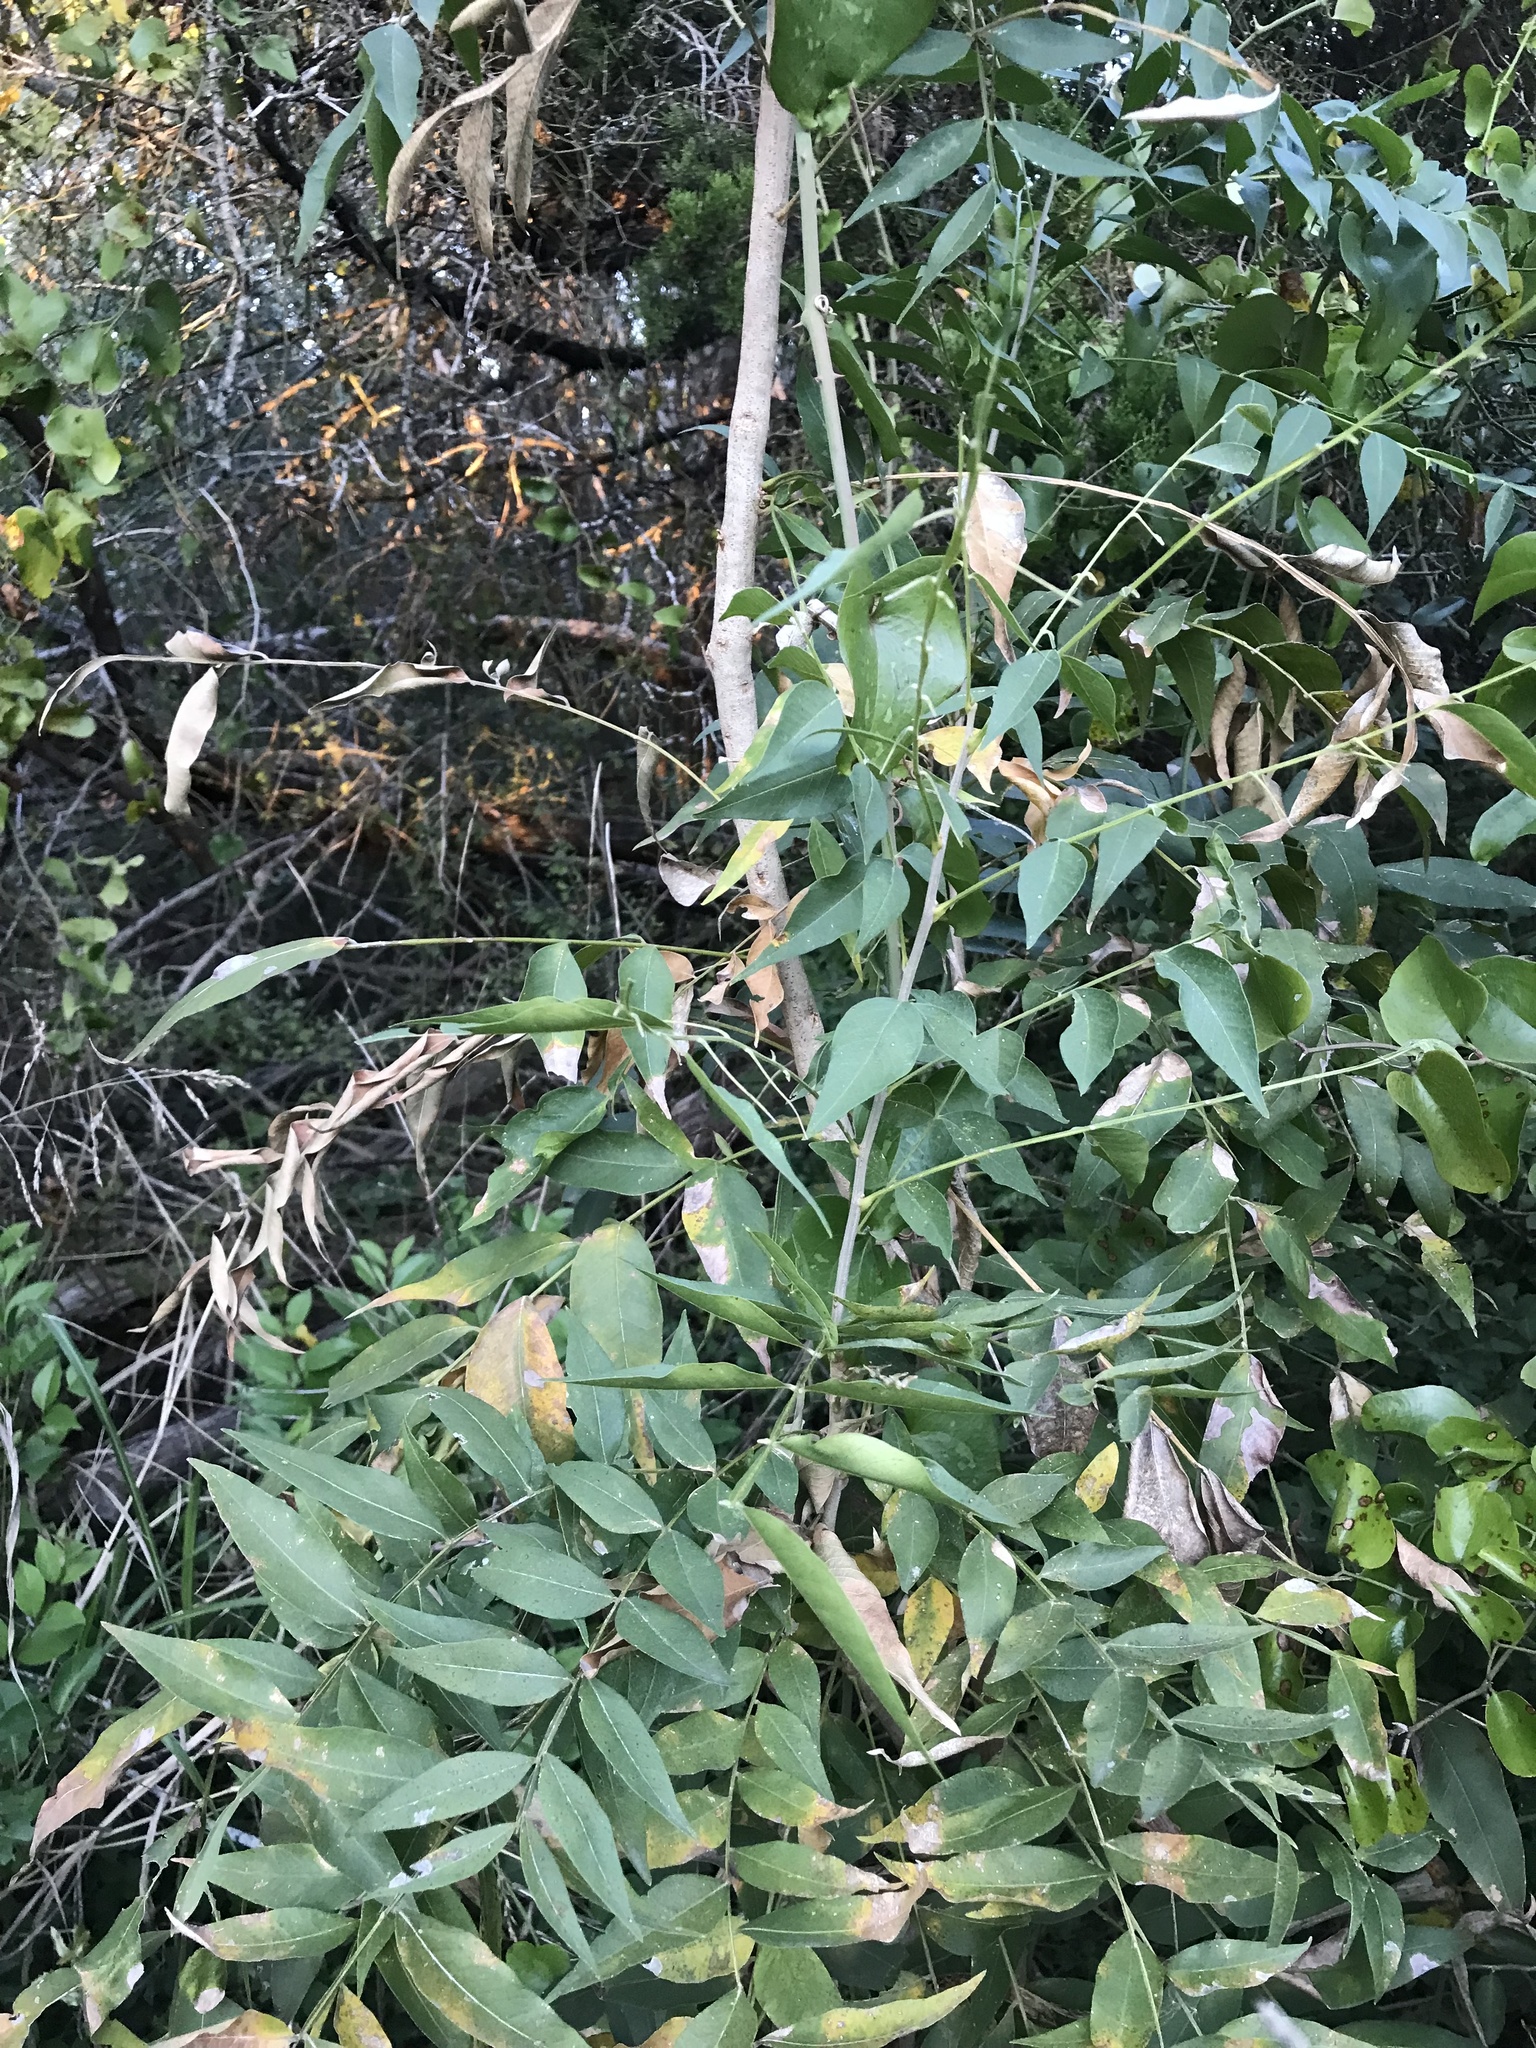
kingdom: Plantae
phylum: Tracheophyta
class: Magnoliopsida
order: Sapindales
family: Sapindaceae
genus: Sapindus
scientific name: Sapindus drummondii
